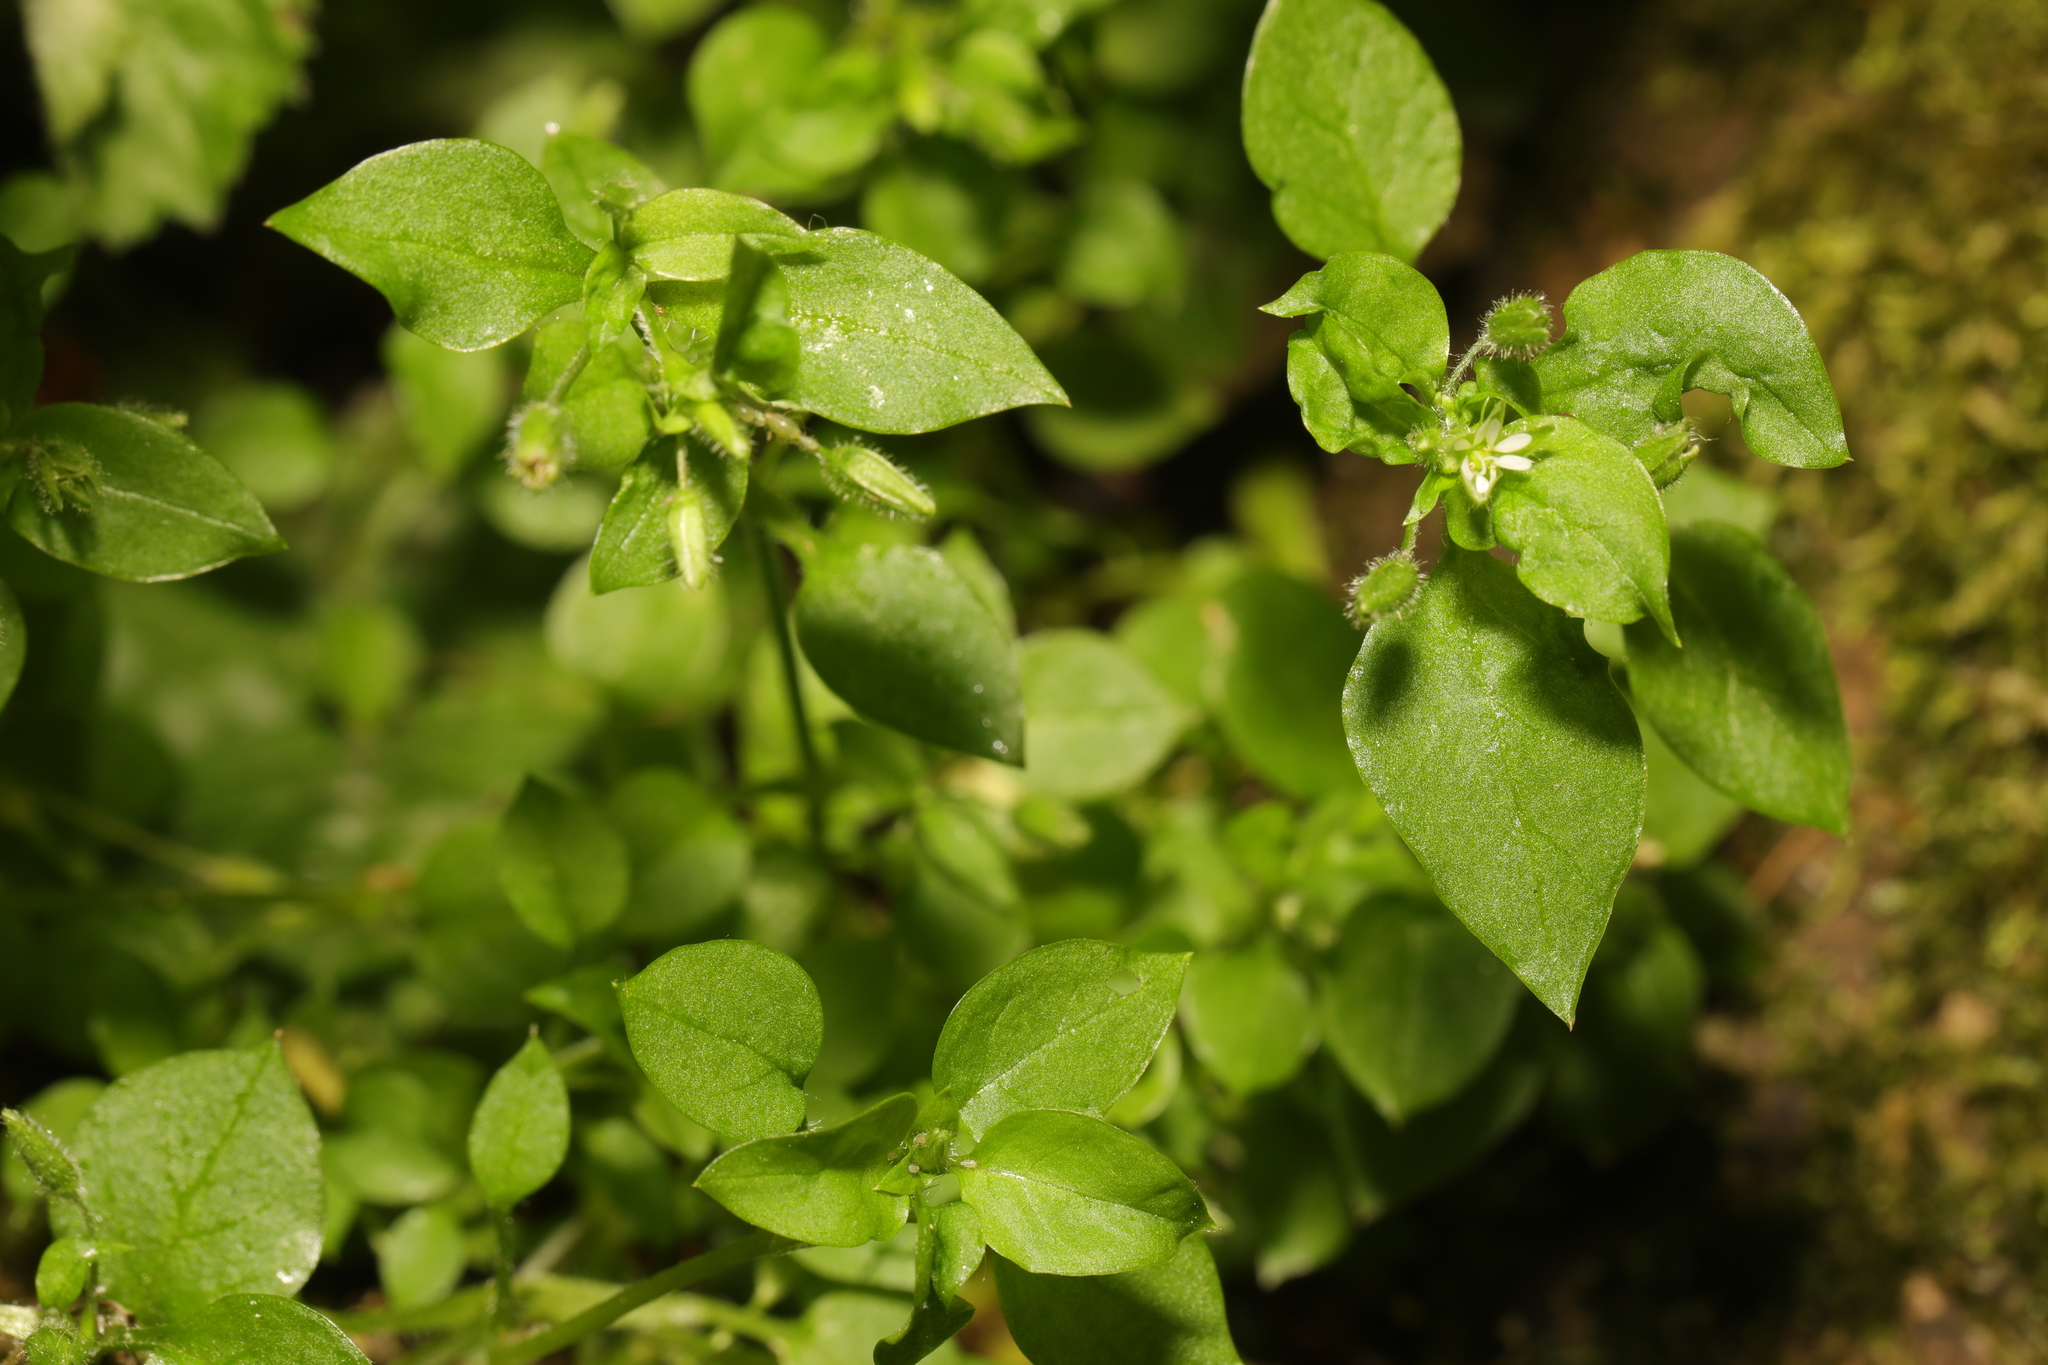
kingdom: Plantae
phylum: Tracheophyta
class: Magnoliopsida
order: Caryophyllales
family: Caryophyllaceae
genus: Stellaria
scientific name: Stellaria media
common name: Common chickweed
